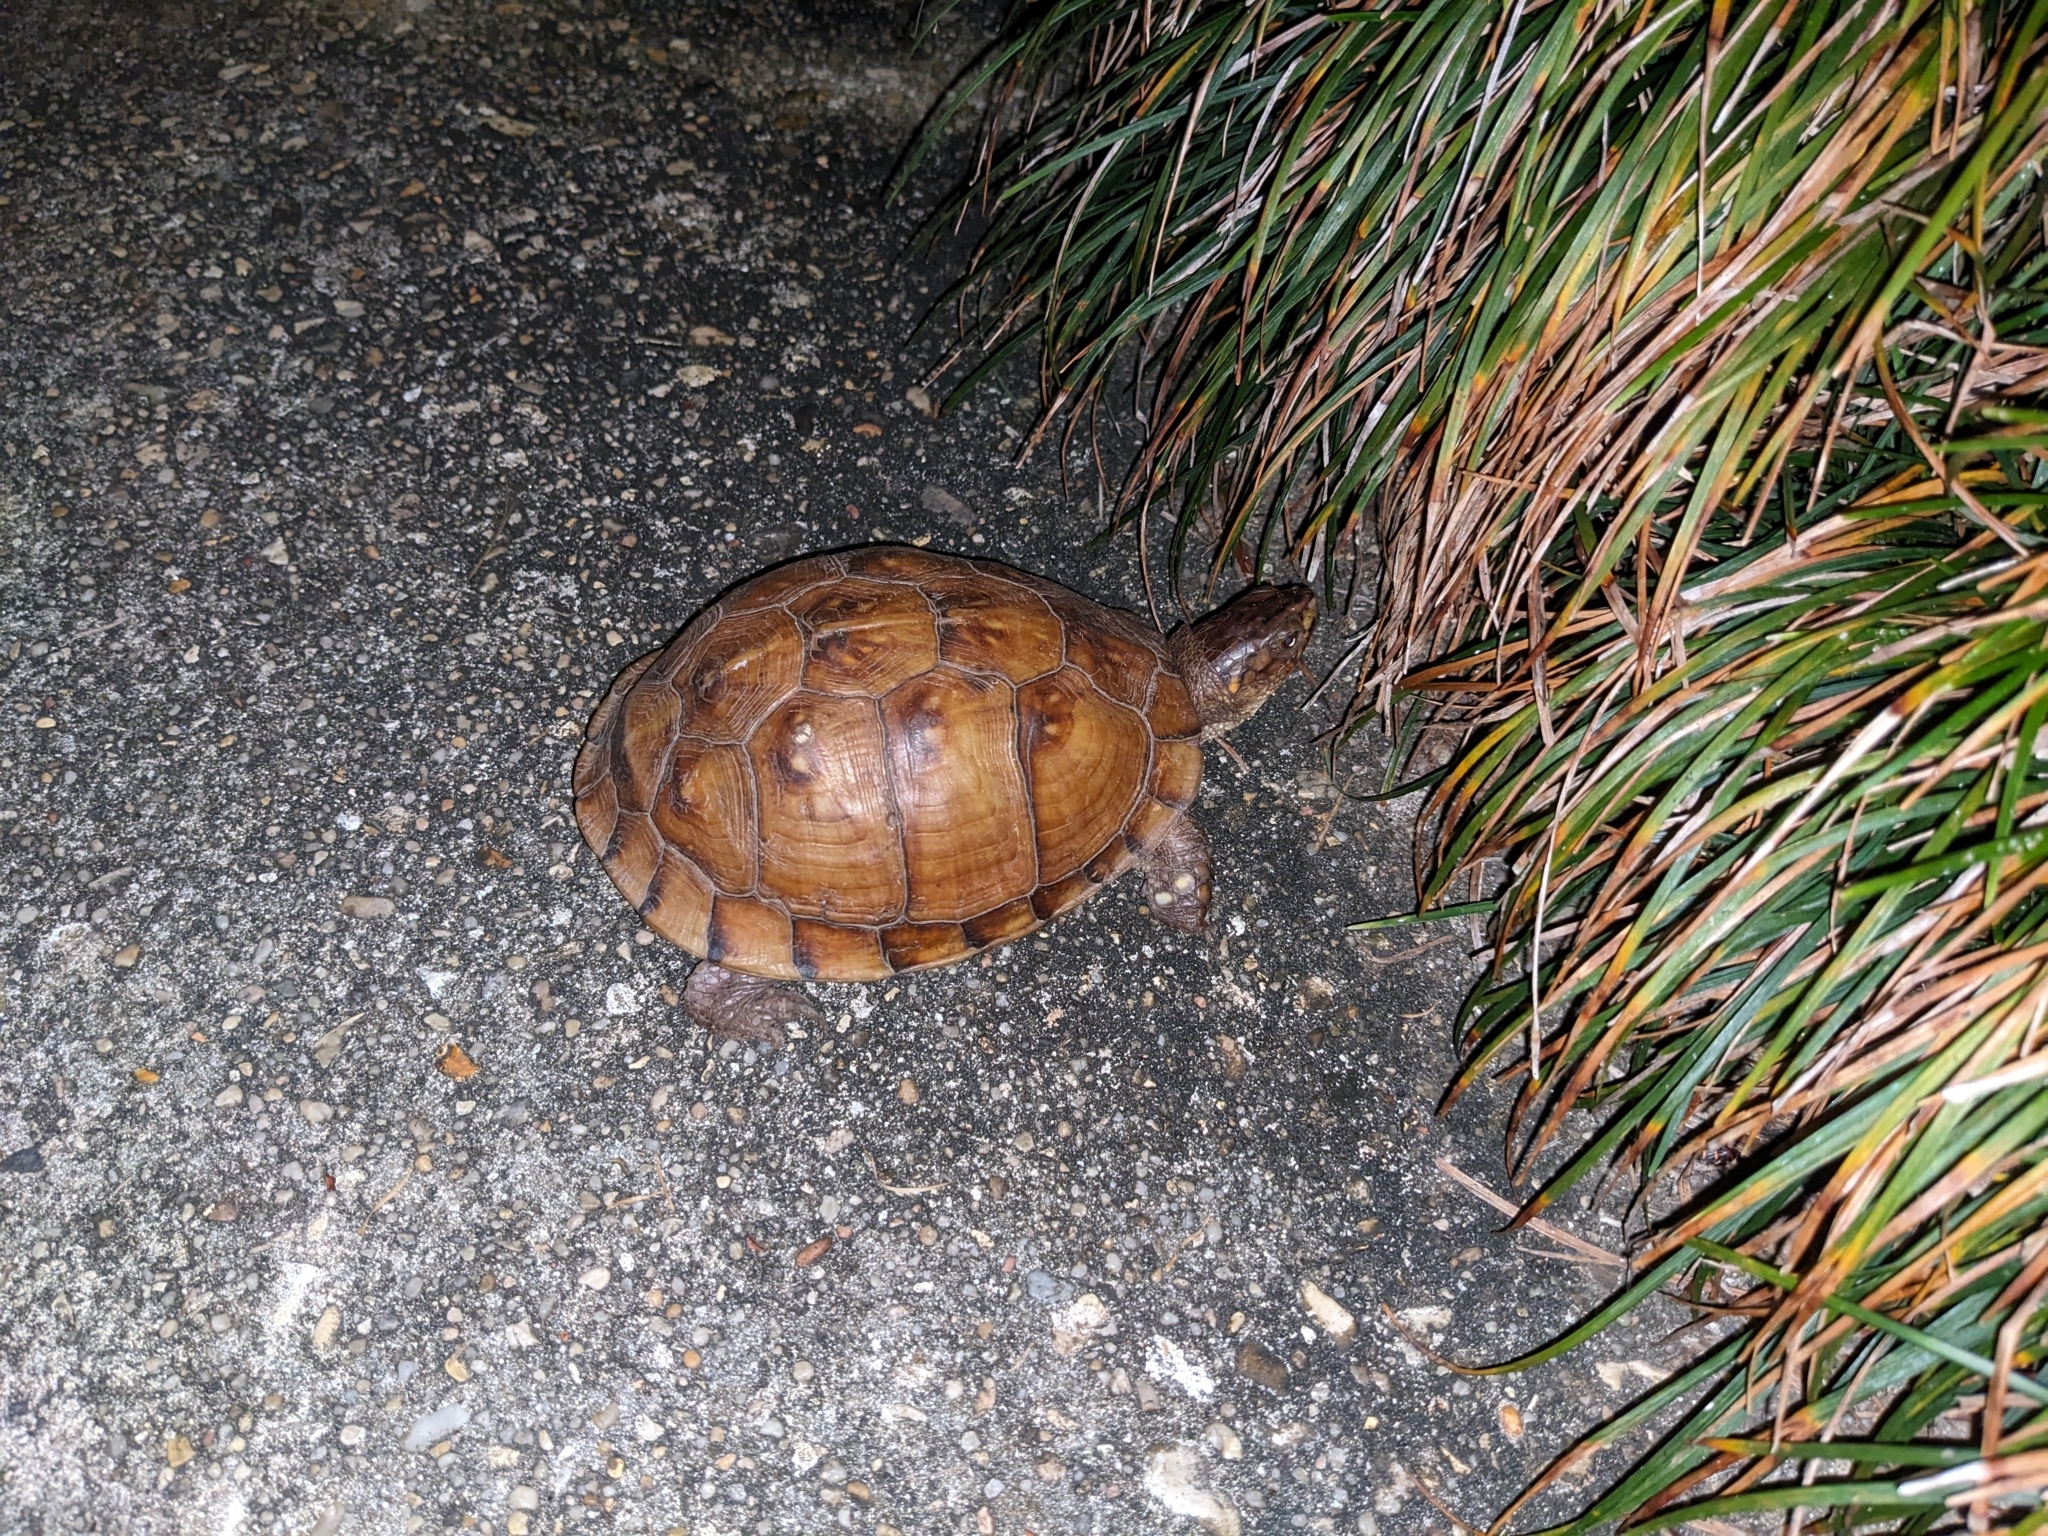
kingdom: Animalia
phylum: Chordata
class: Testudines
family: Emydidae
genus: Terrapene
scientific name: Terrapene carolina
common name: Common box turtle
